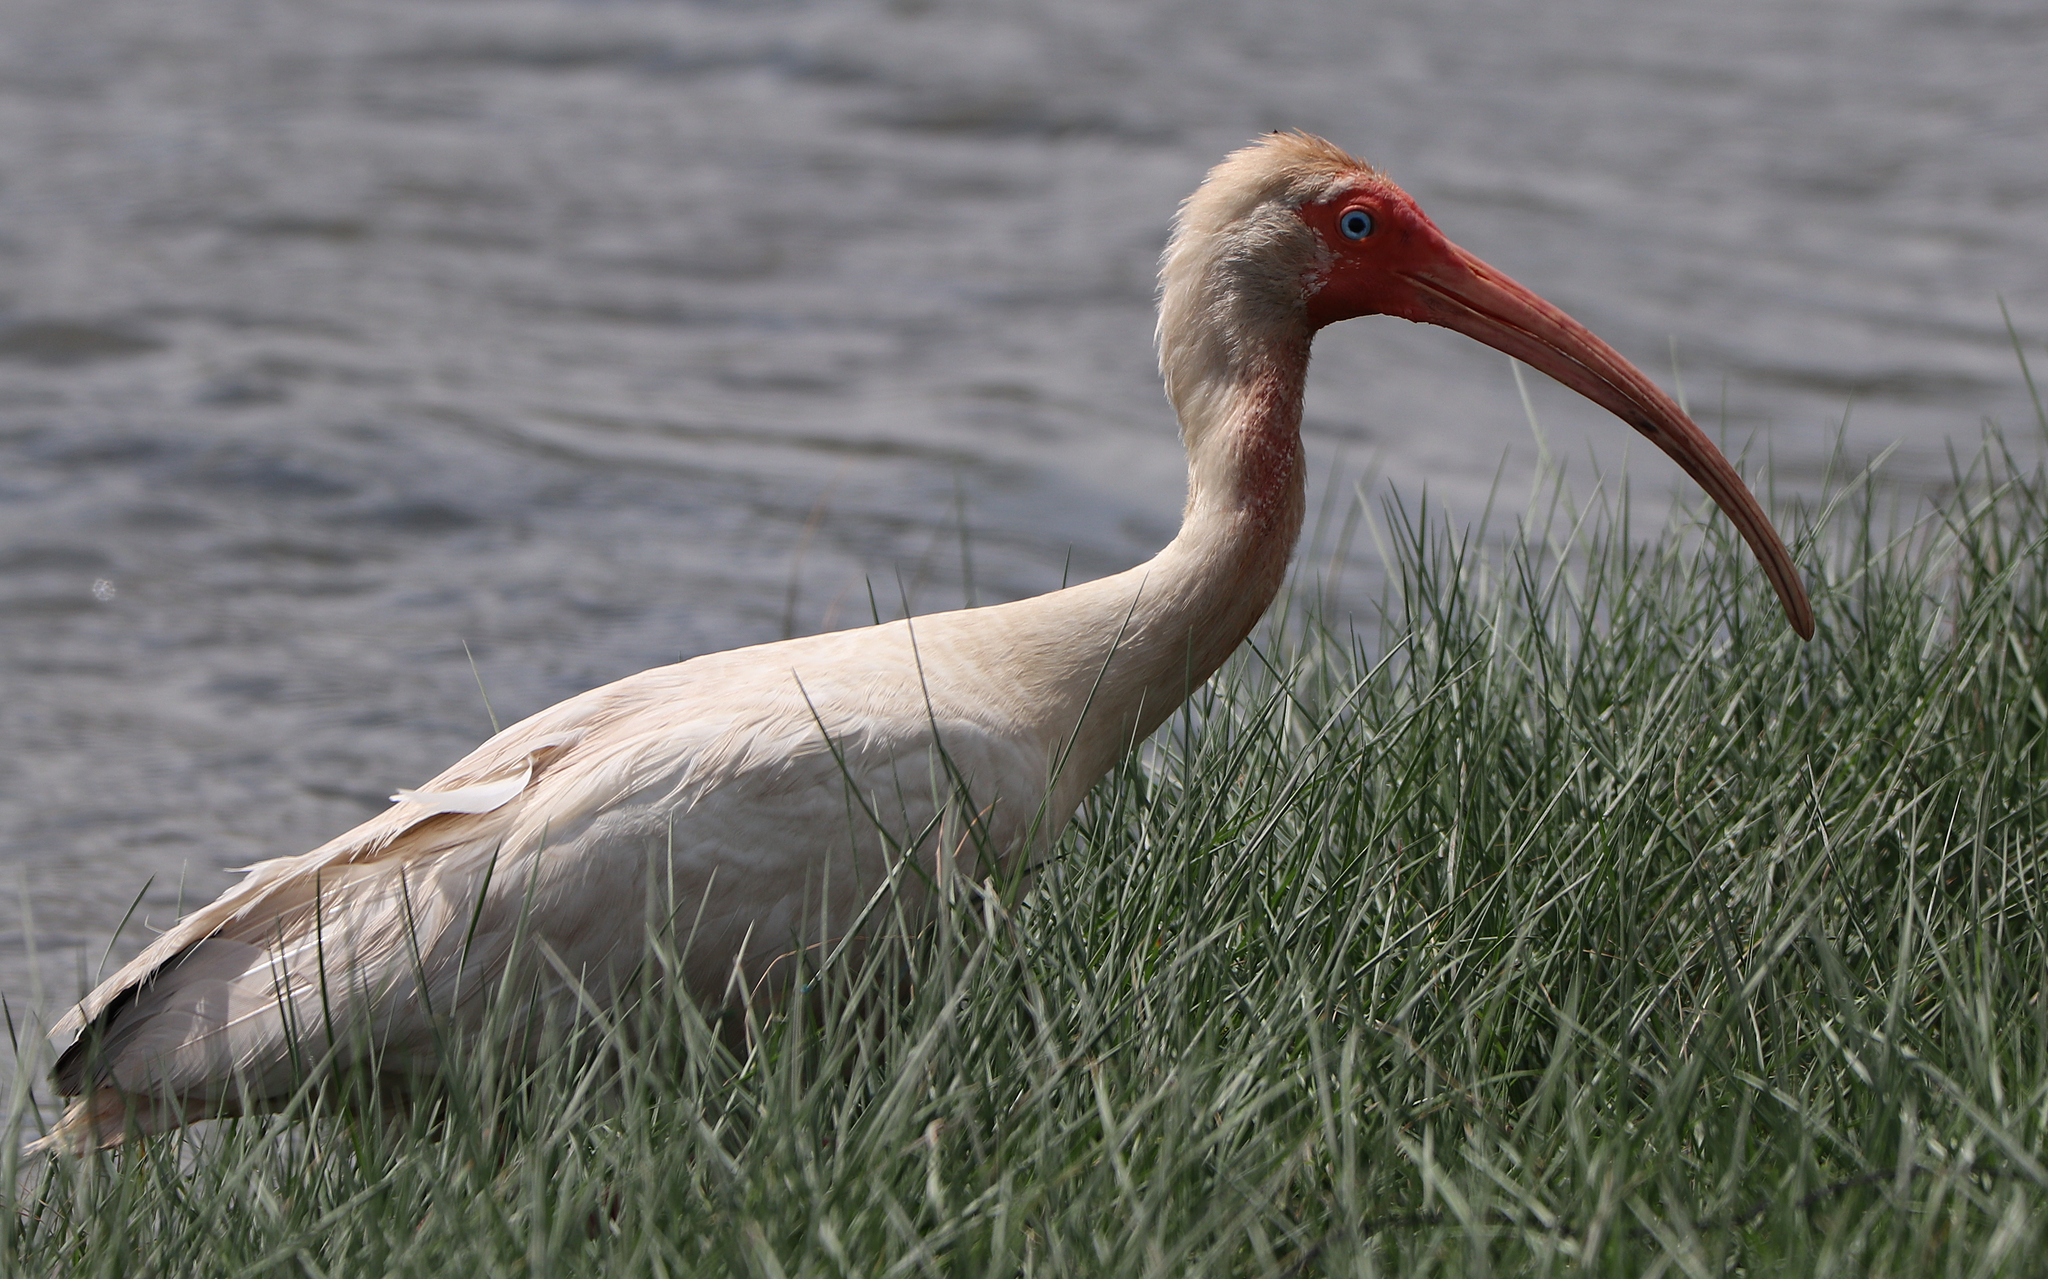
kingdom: Animalia
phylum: Chordata
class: Aves
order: Pelecaniformes
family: Threskiornithidae
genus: Eudocimus
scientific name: Eudocimus albus
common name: White ibis
